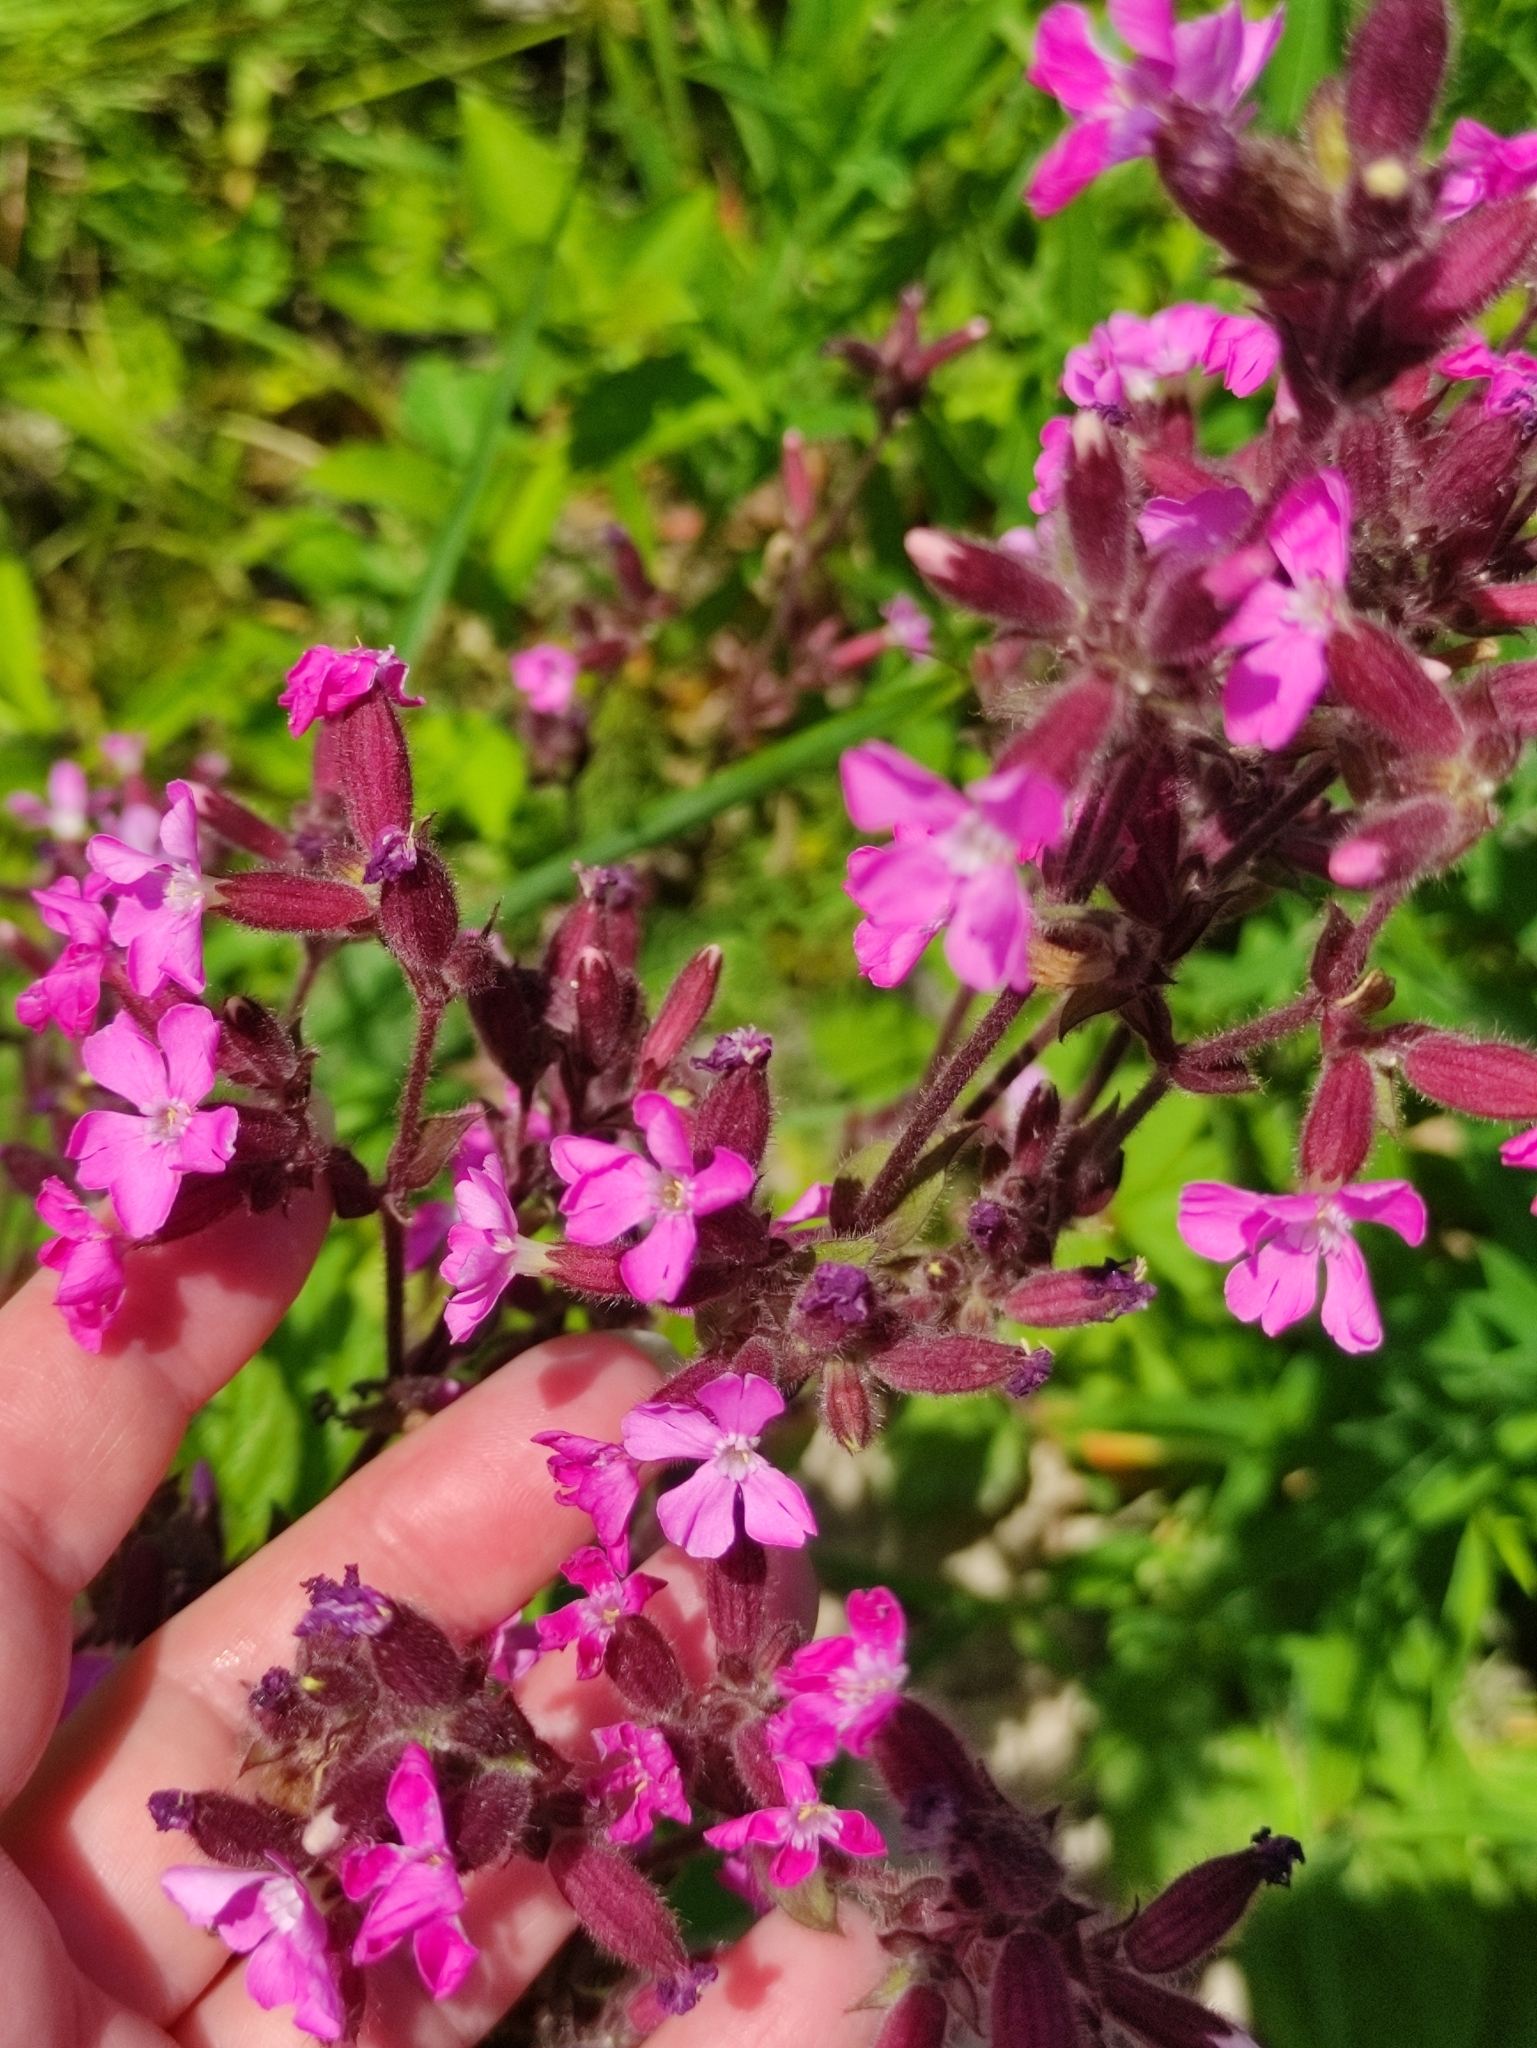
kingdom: Plantae
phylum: Tracheophyta
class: Magnoliopsida
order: Caryophyllales
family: Caryophyllaceae
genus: Viscaria
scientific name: Viscaria vulgaris
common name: Clammy campion
